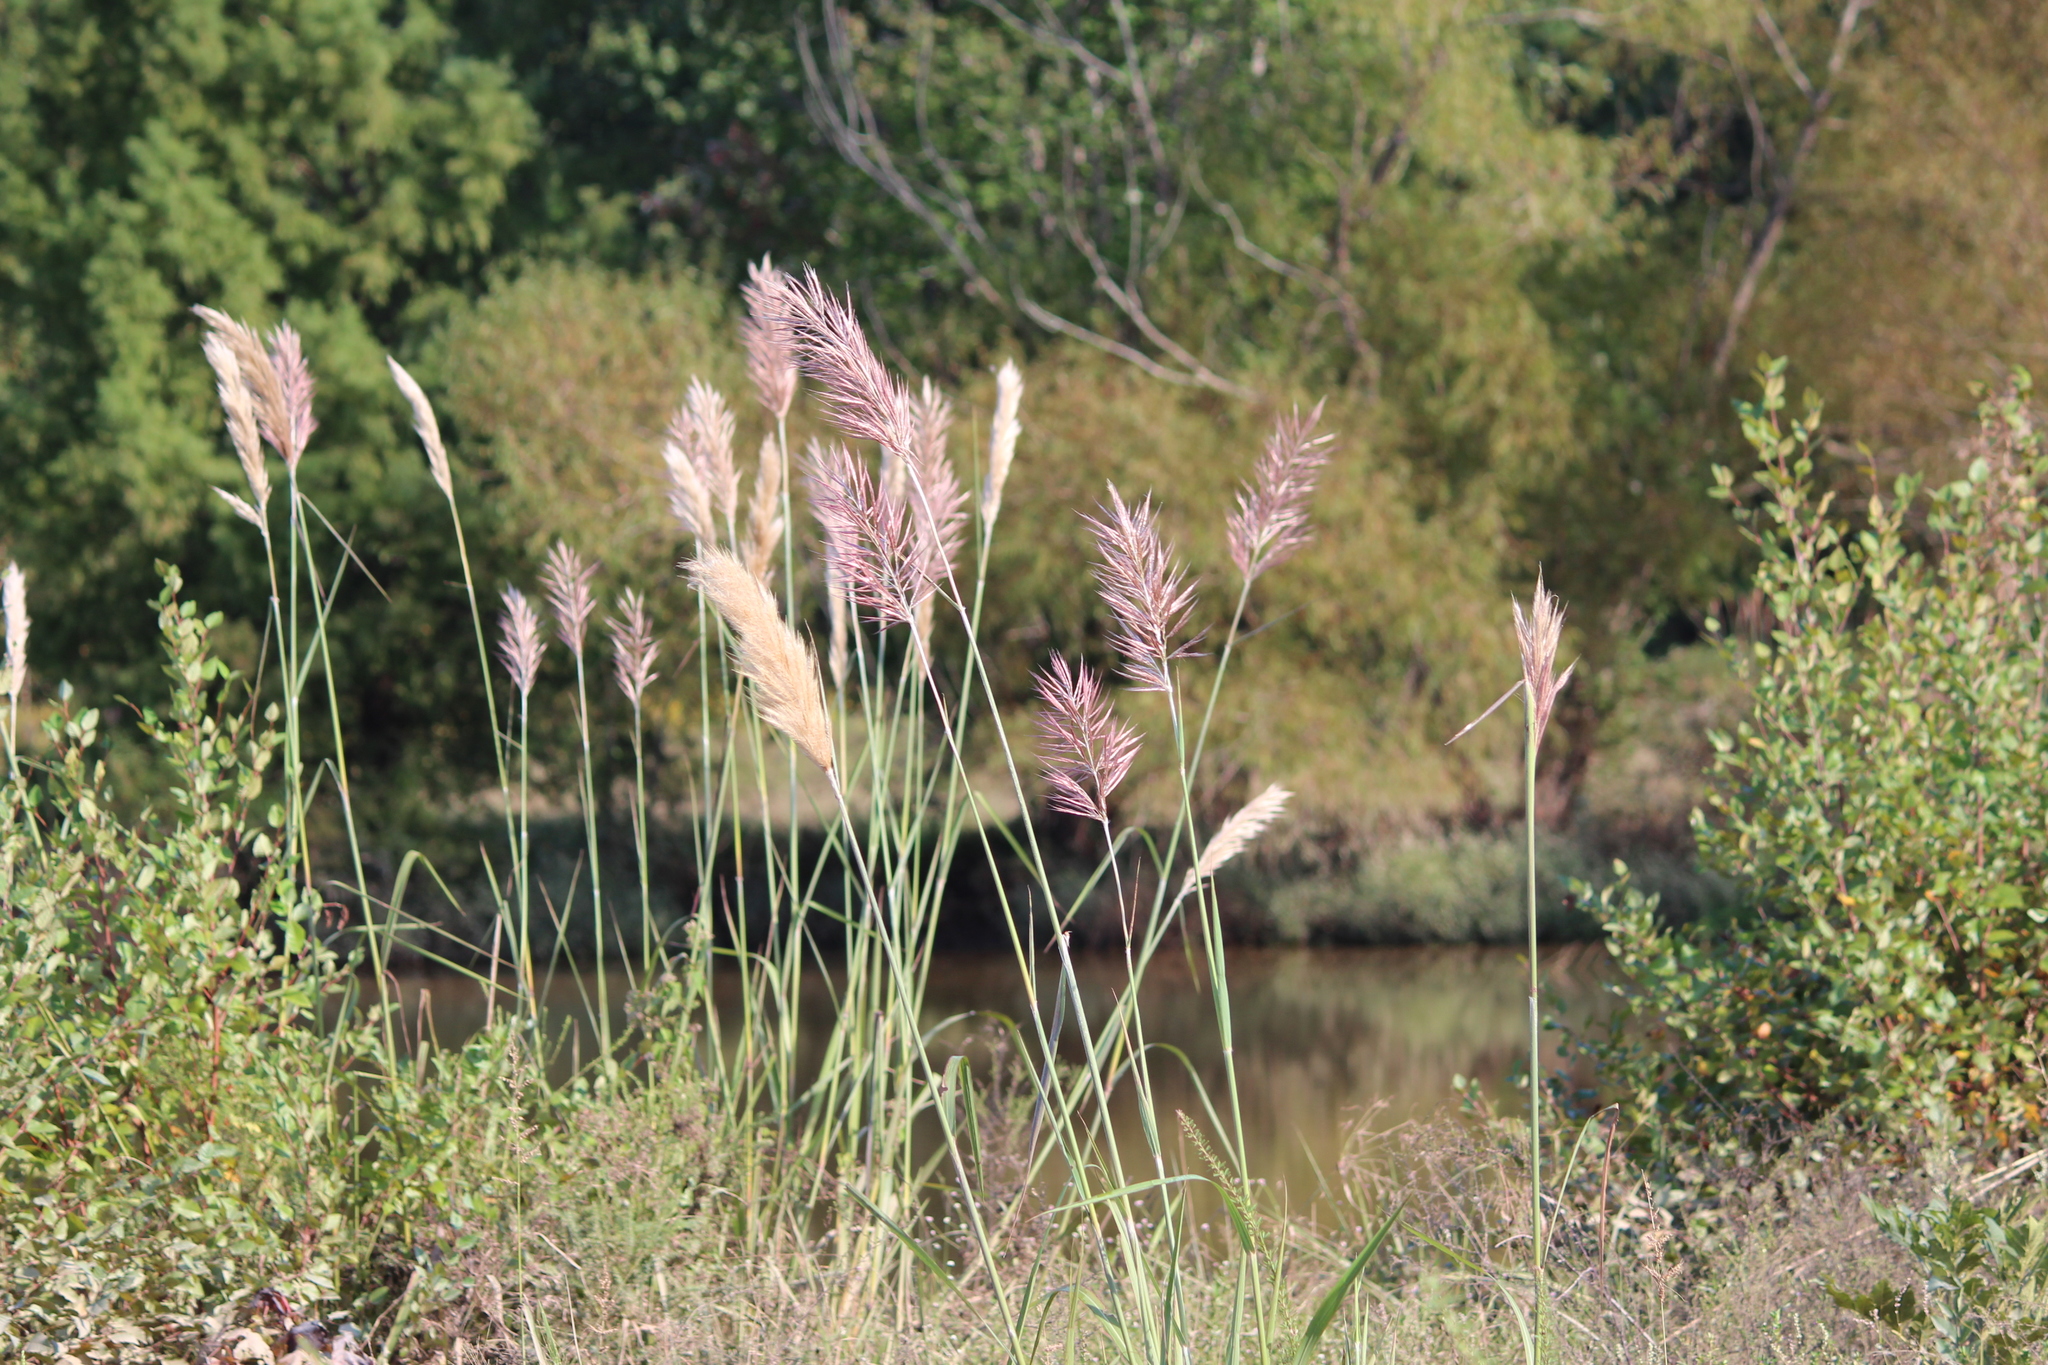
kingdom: Plantae
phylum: Tracheophyta
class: Liliopsida
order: Poales
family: Poaceae
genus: Phragmites
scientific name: Phragmites australis
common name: Common reed
